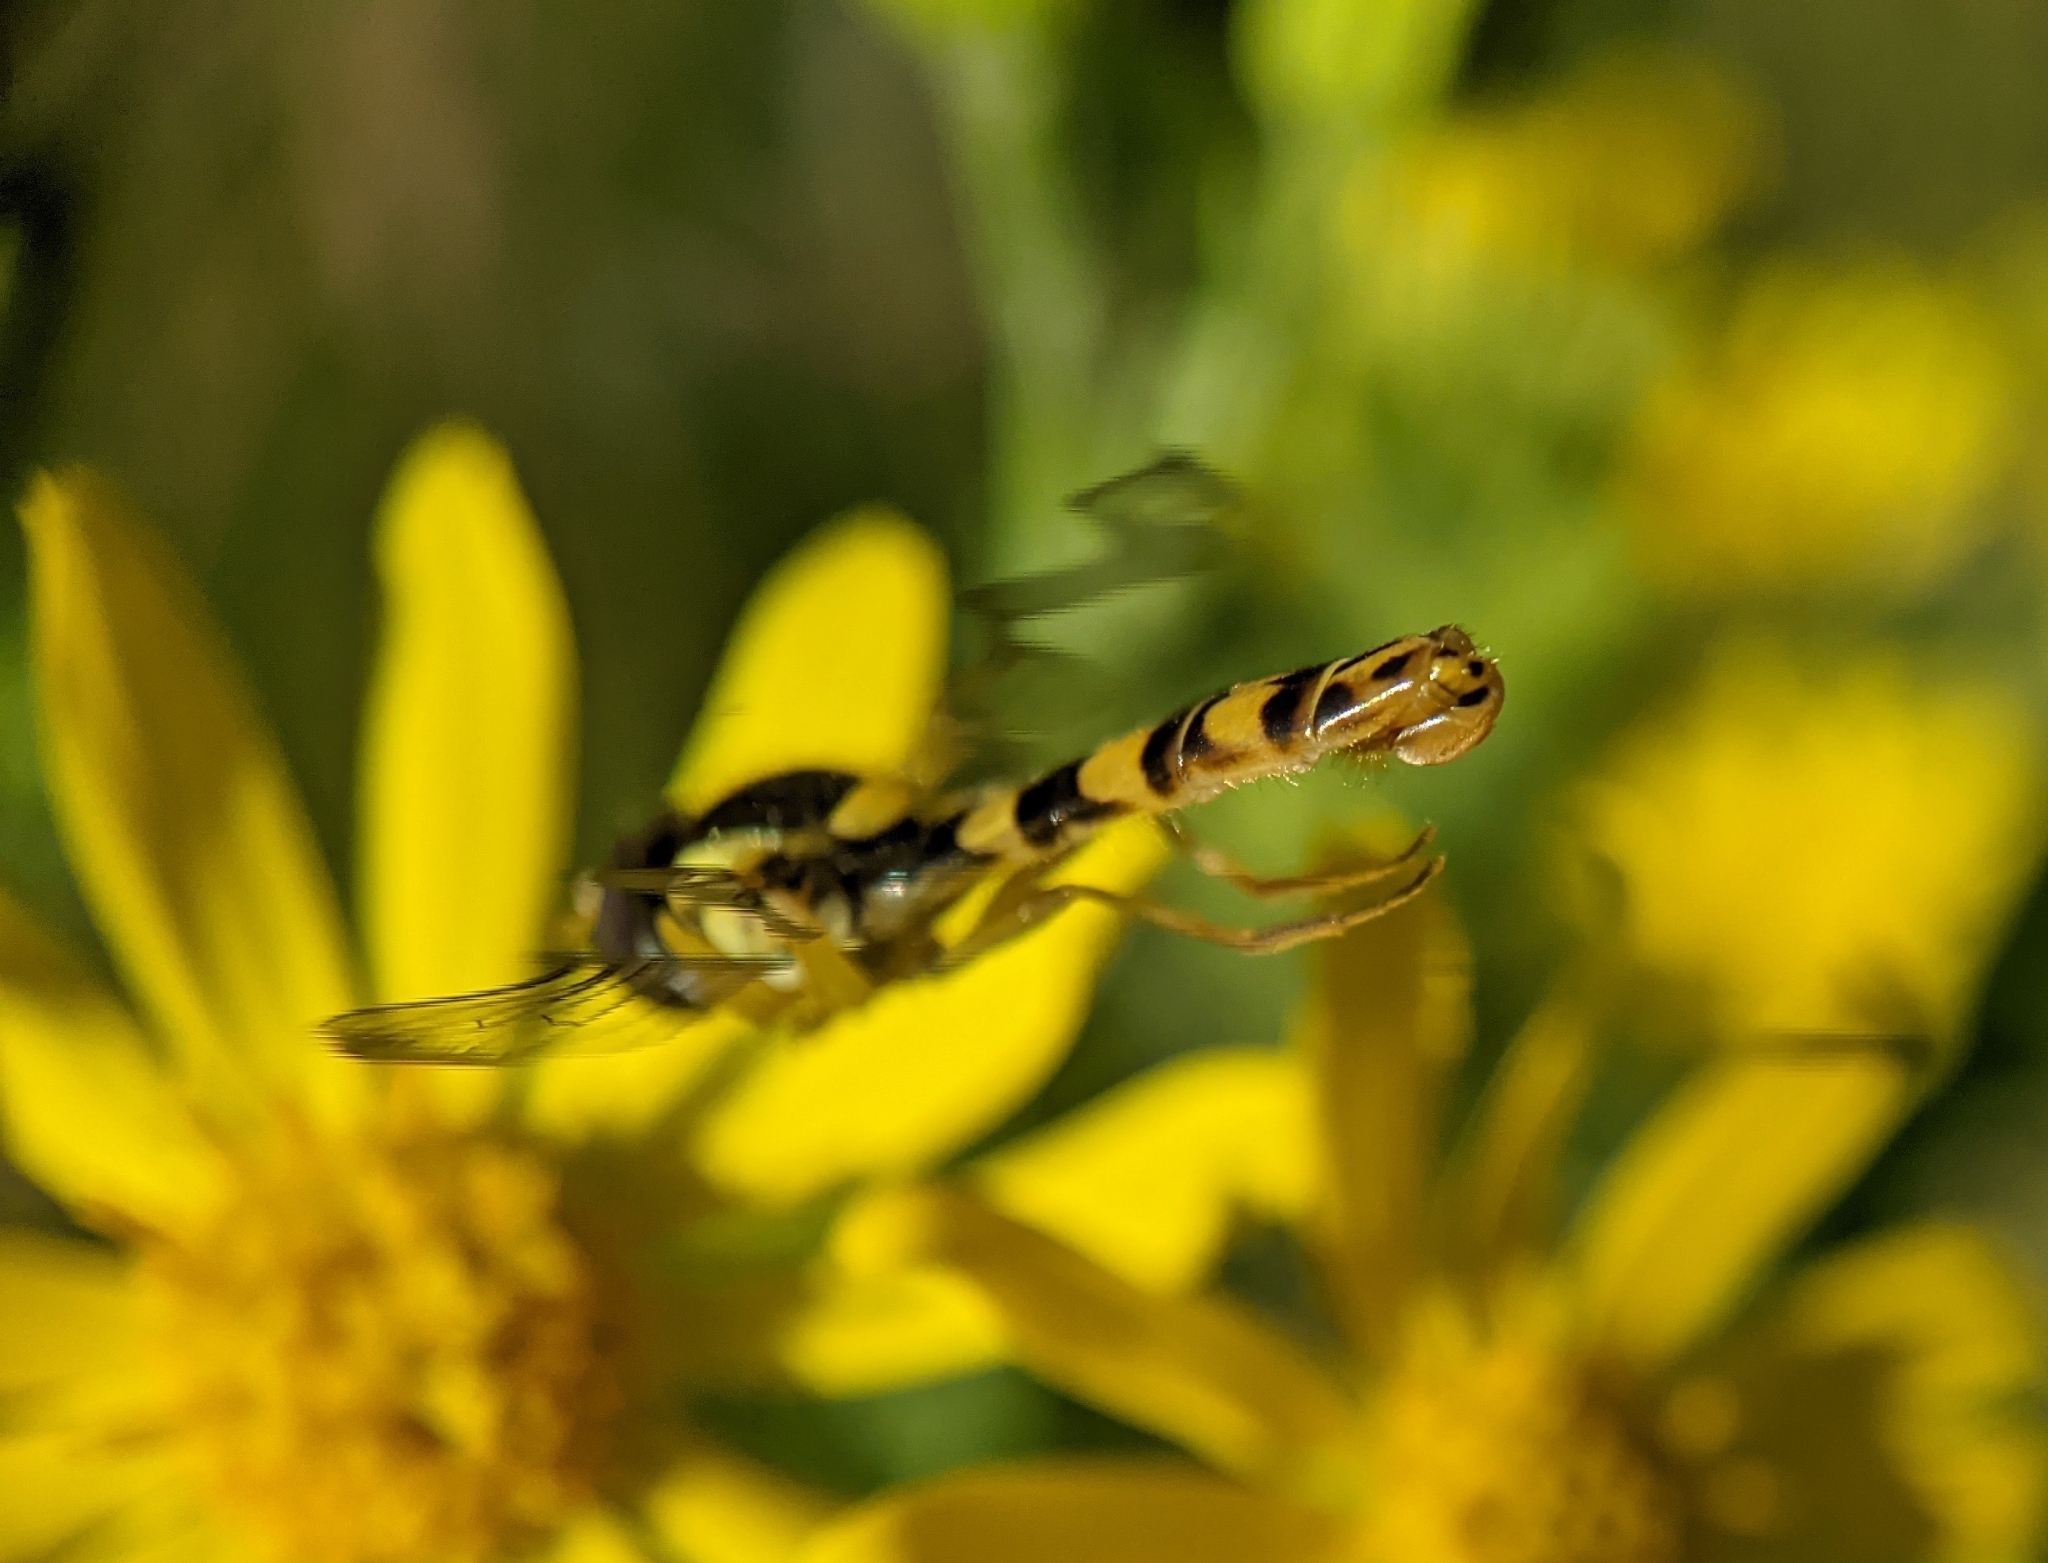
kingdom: Animalia
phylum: Arthropoda
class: Insecta
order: Diptera
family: Syrphidae
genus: Sphaerophoria
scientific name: Sphaerophoria
